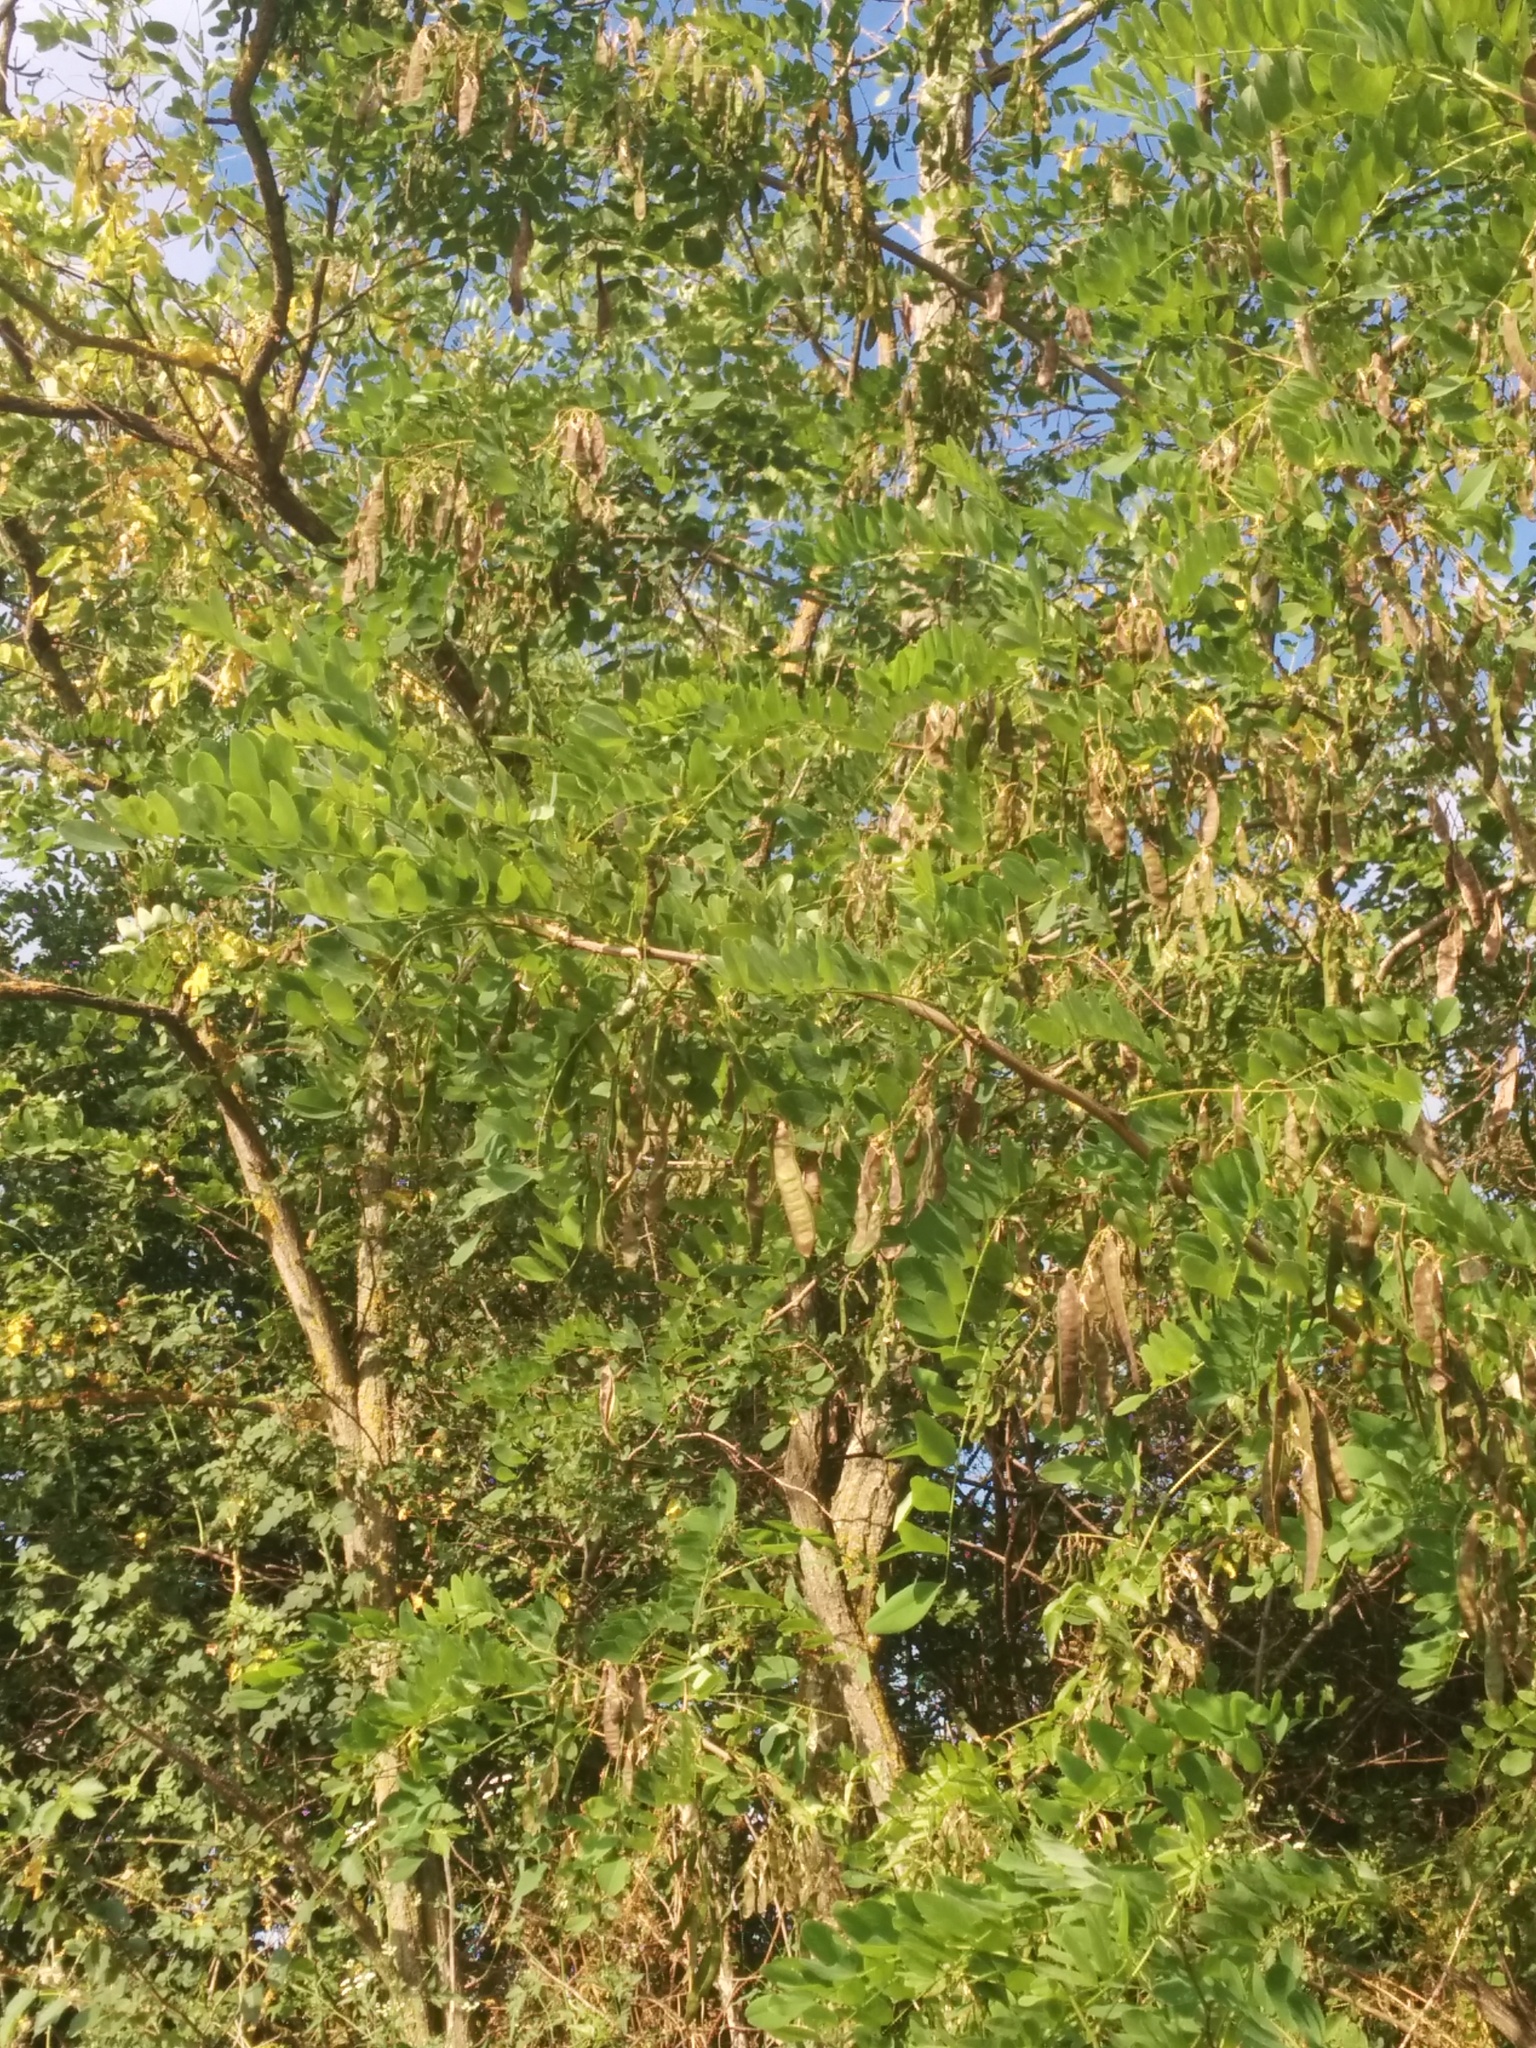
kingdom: Plantae
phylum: Tracheophyta
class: Magnoliopsida
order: Fabales
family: Fabaceae
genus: Robinia
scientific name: Robinia pseudoacacia
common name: Black locust
